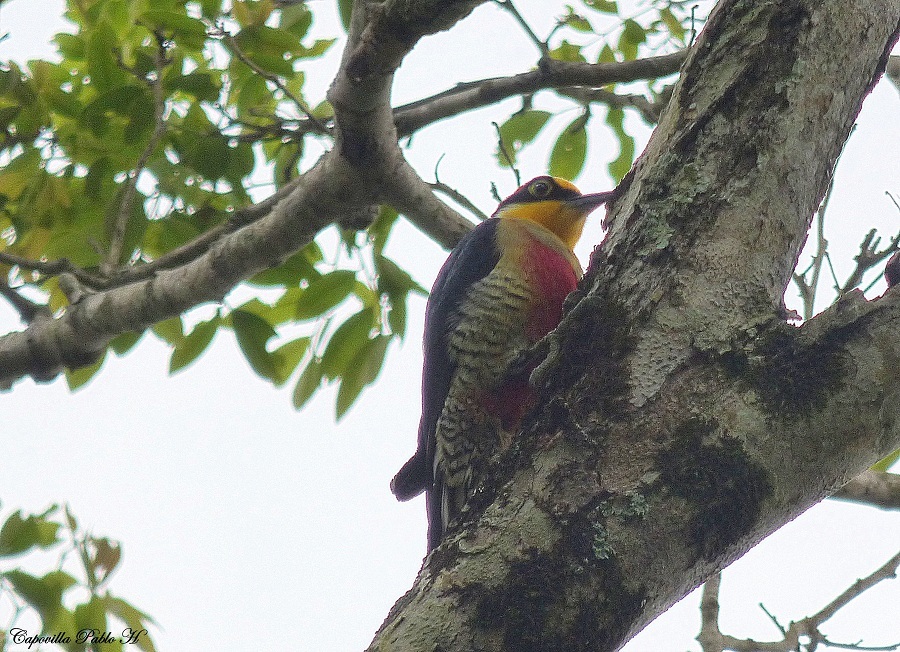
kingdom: Animalia
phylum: Chordata
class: Aves
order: Piciformes
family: Picidae
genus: Melanerpes
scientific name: Melanerpes flavifrons
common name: Yellow-fronted woodpecker
